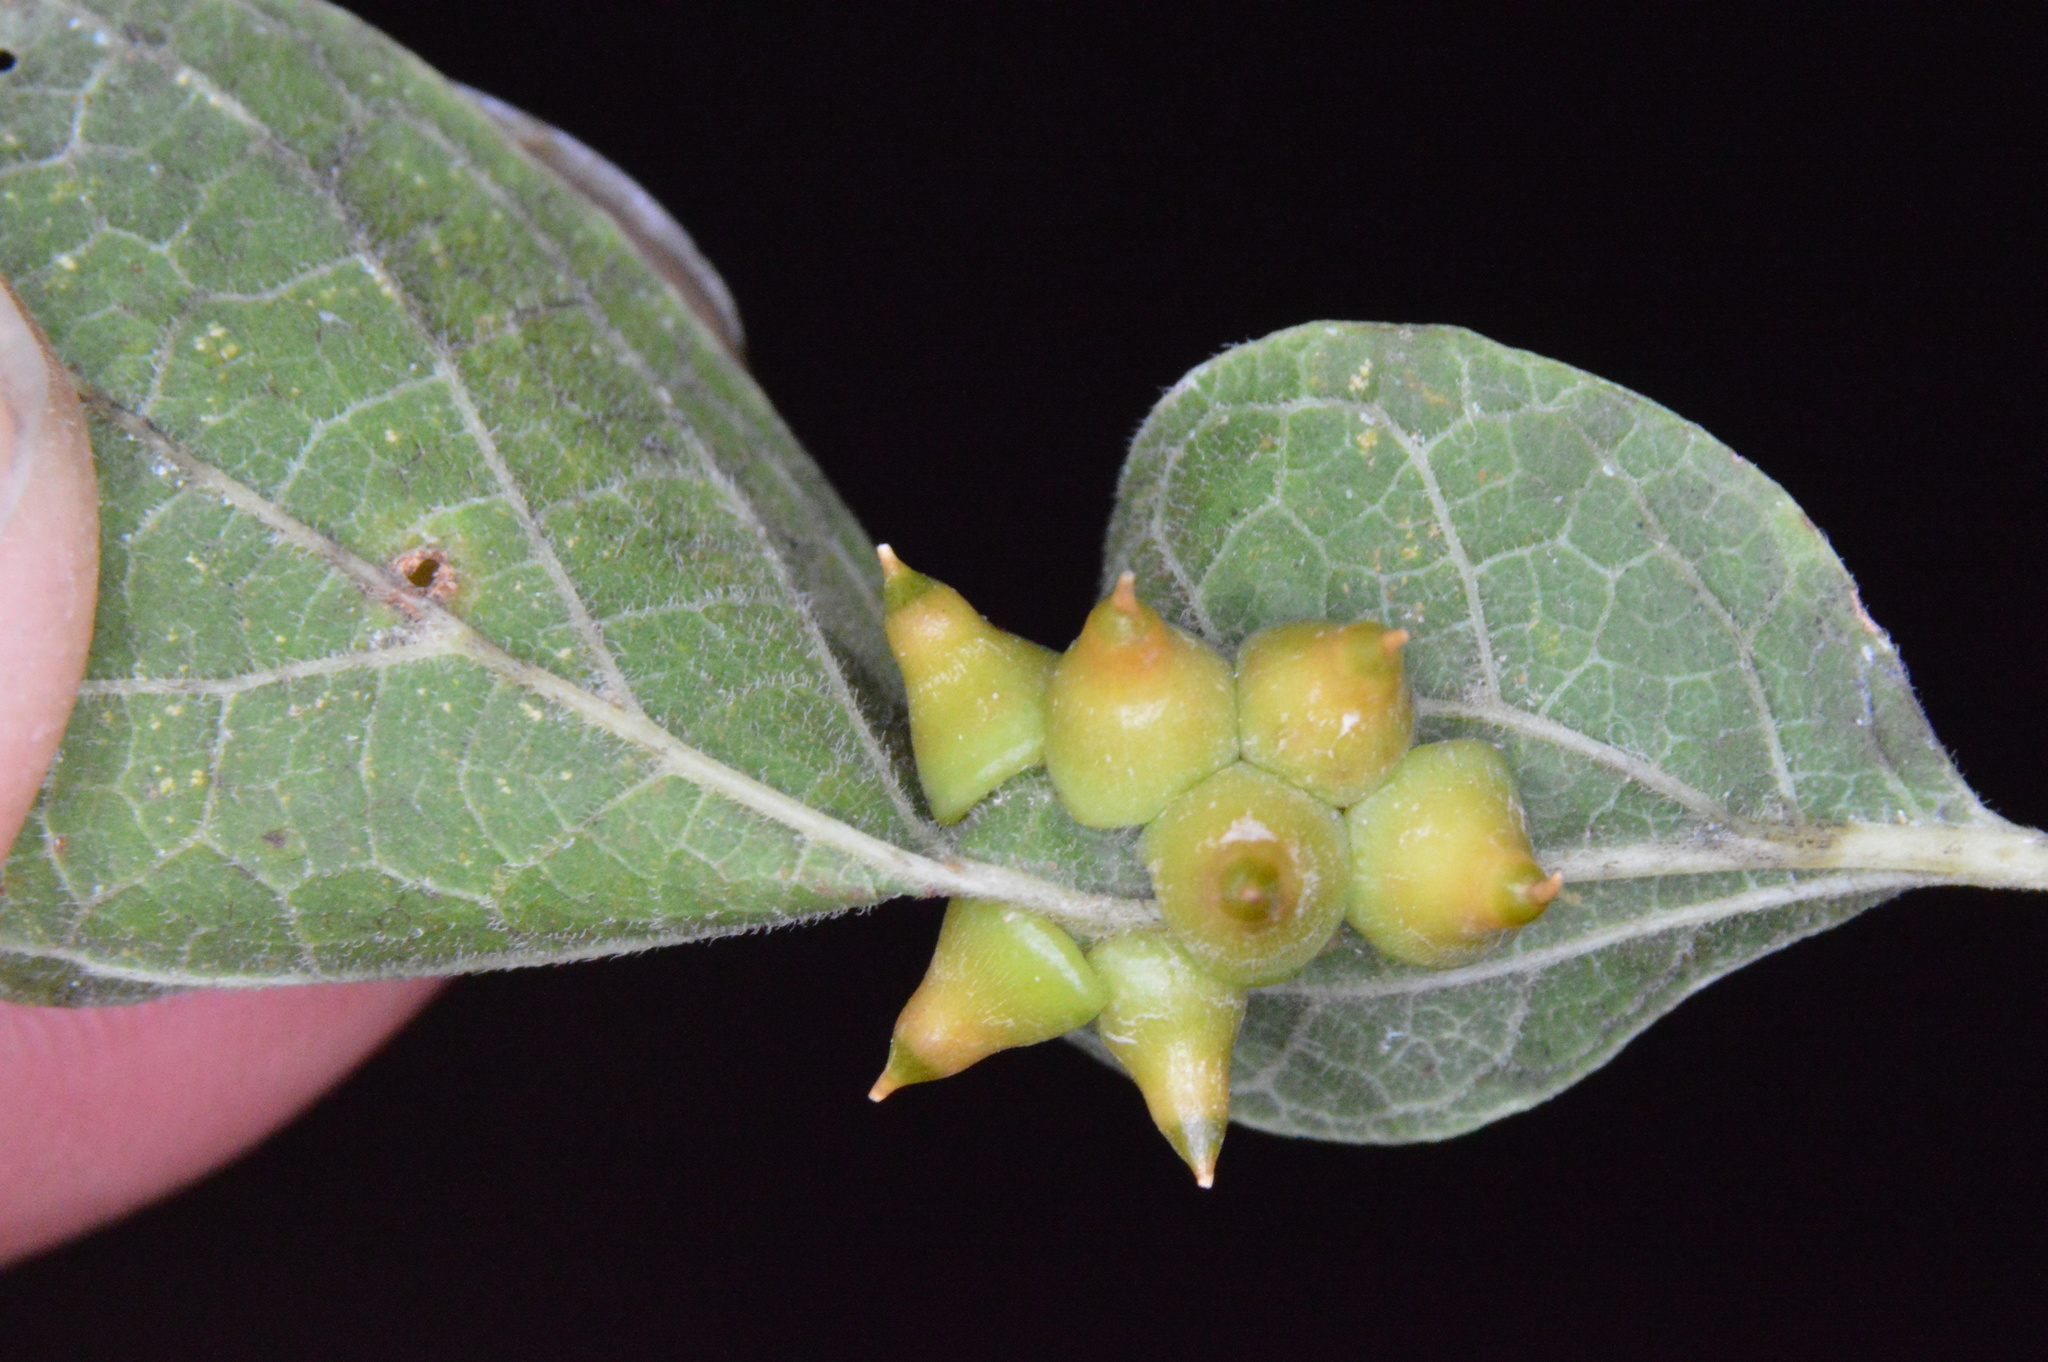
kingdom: Animalia
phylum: Arthropoda
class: Insecta
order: Diptera
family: Cecidomyiidae
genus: Celticecis
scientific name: Celticecis spiniformis
